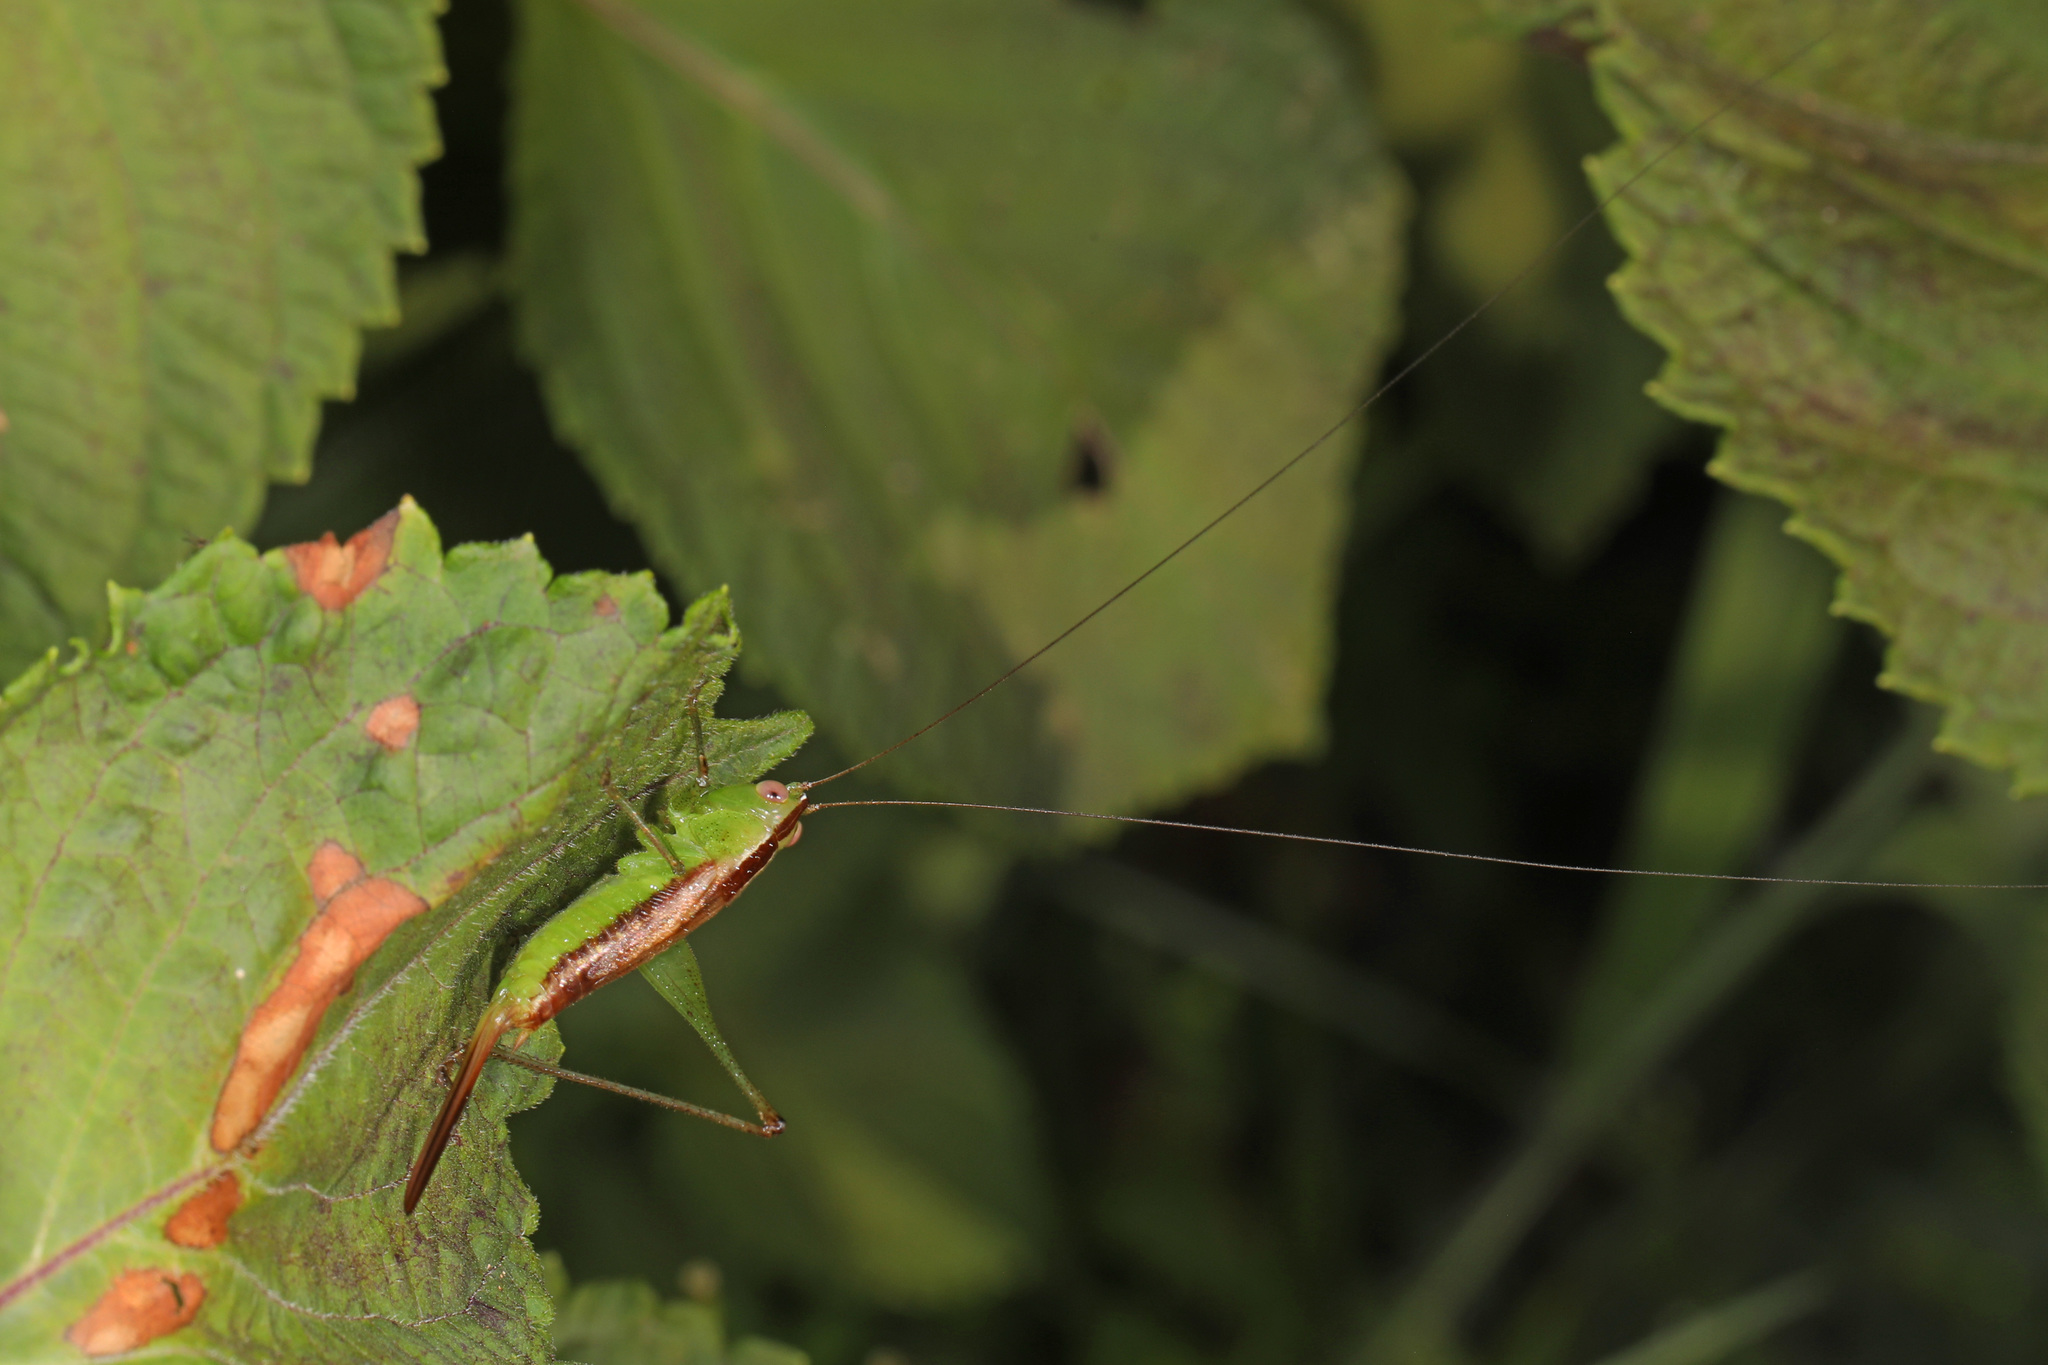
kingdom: Animalia
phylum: Arthropoda
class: Insecta
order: Orthoptera
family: Tettigoniidae
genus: Conocephalus
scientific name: Conocephalus brevipennis
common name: Short-winged meadow katydid
